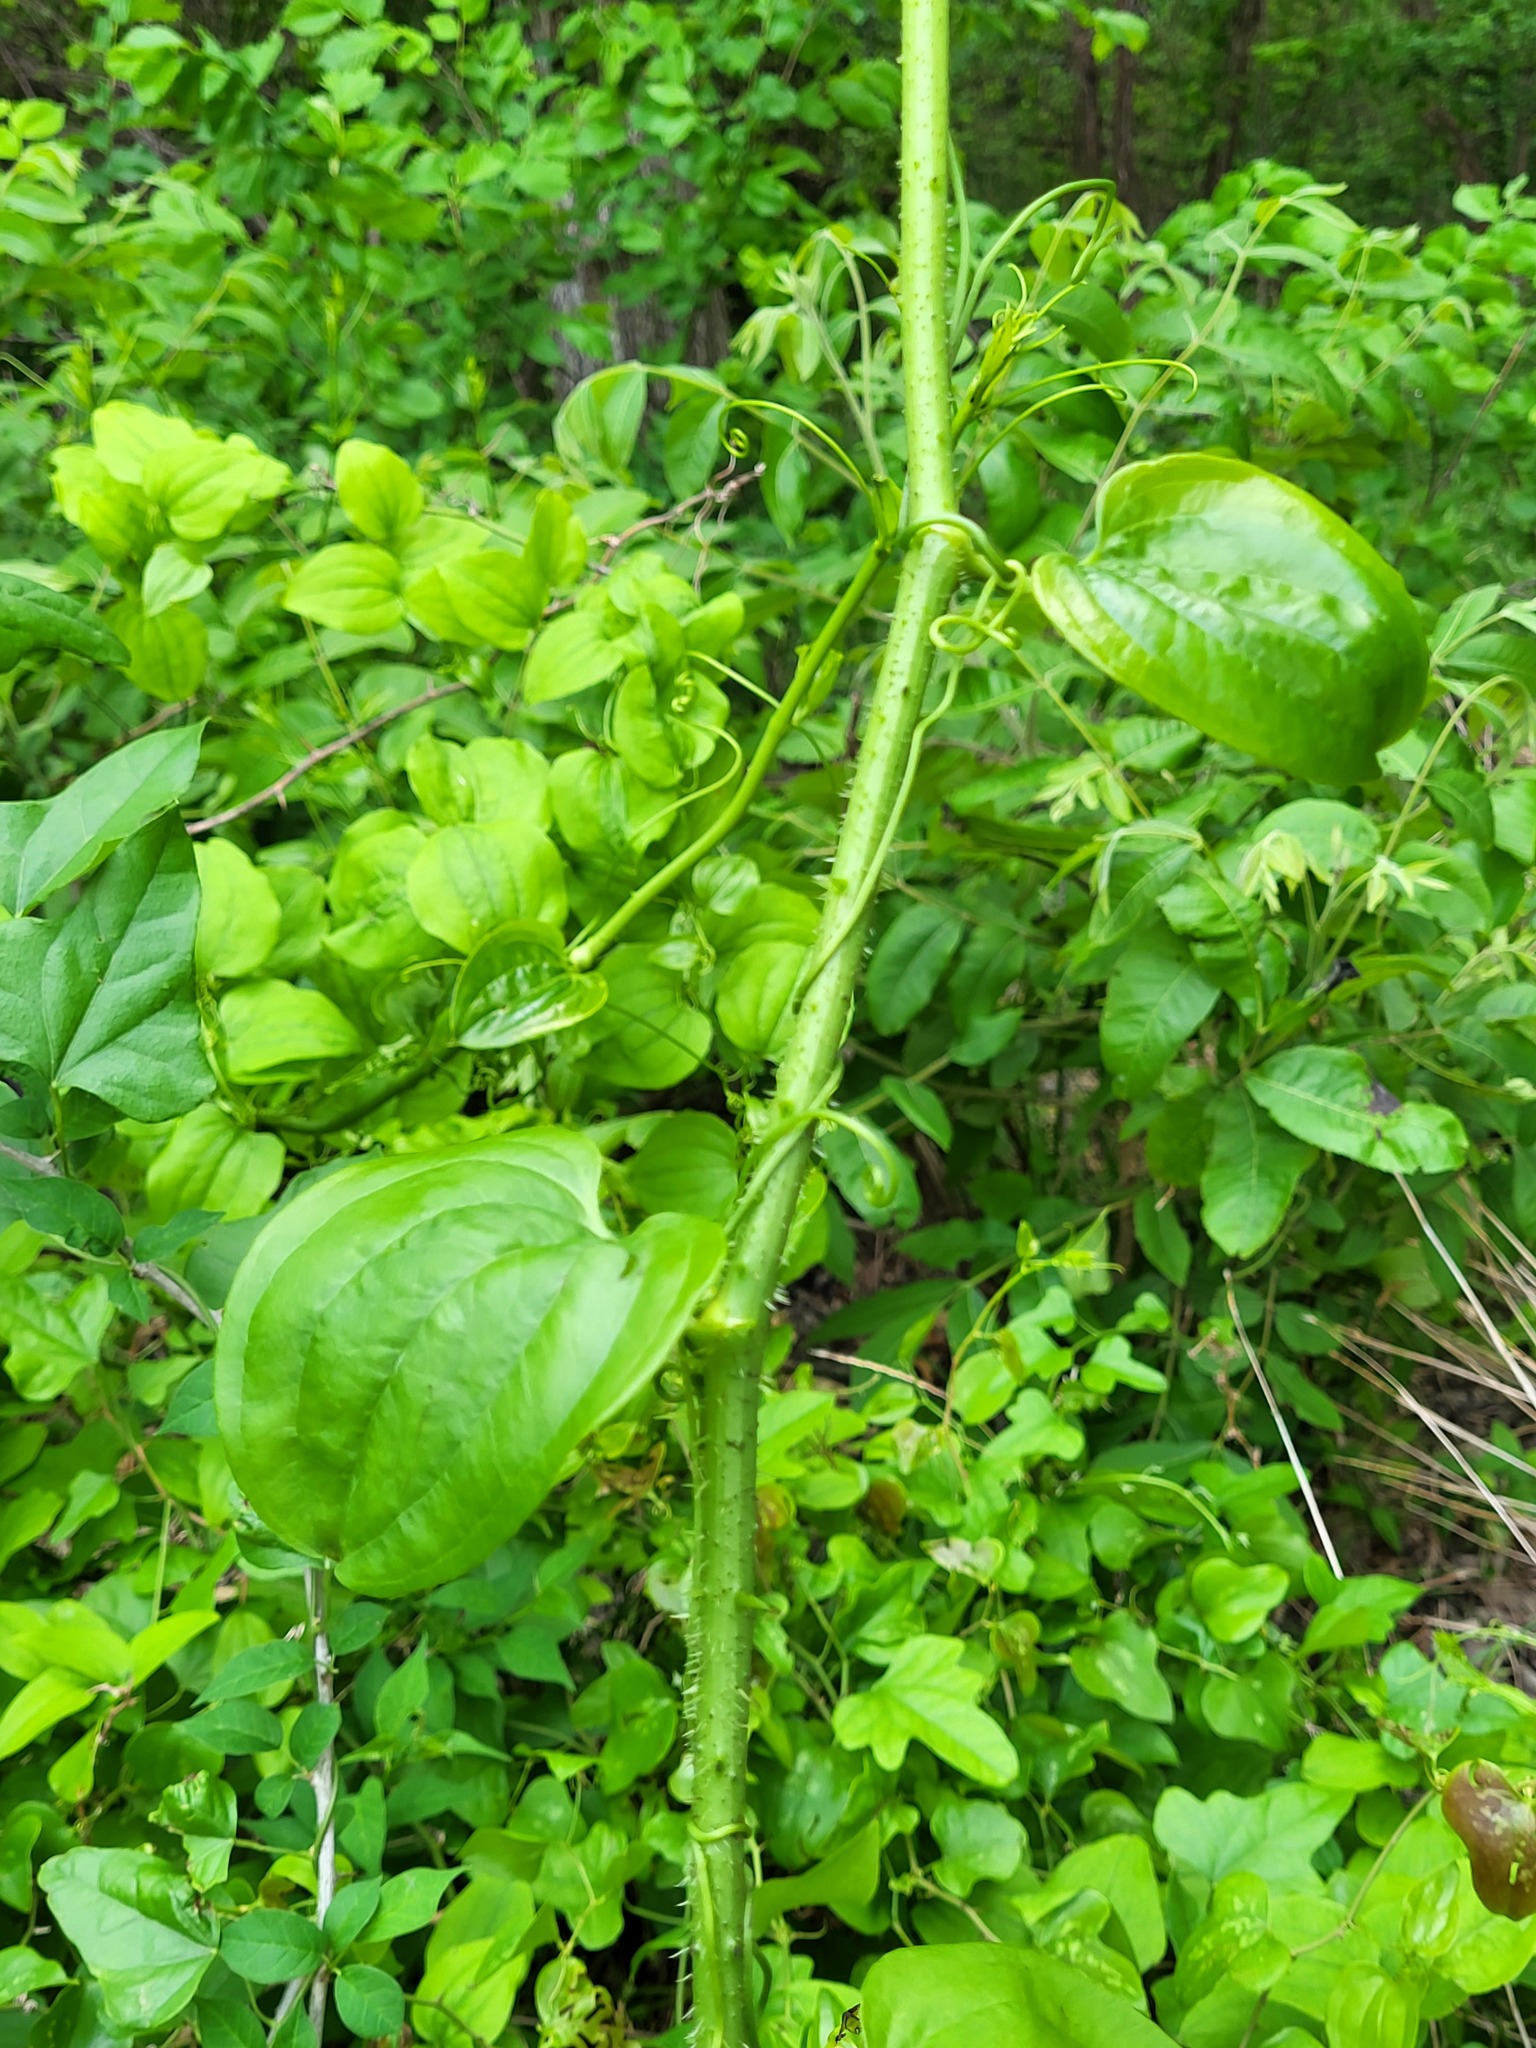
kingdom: Plantae
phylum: Tracheophyta
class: Liliopsida
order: Liliales
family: Smilacaceae
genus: Smilax
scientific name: Smilax tamnoides
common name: Hellfetter
